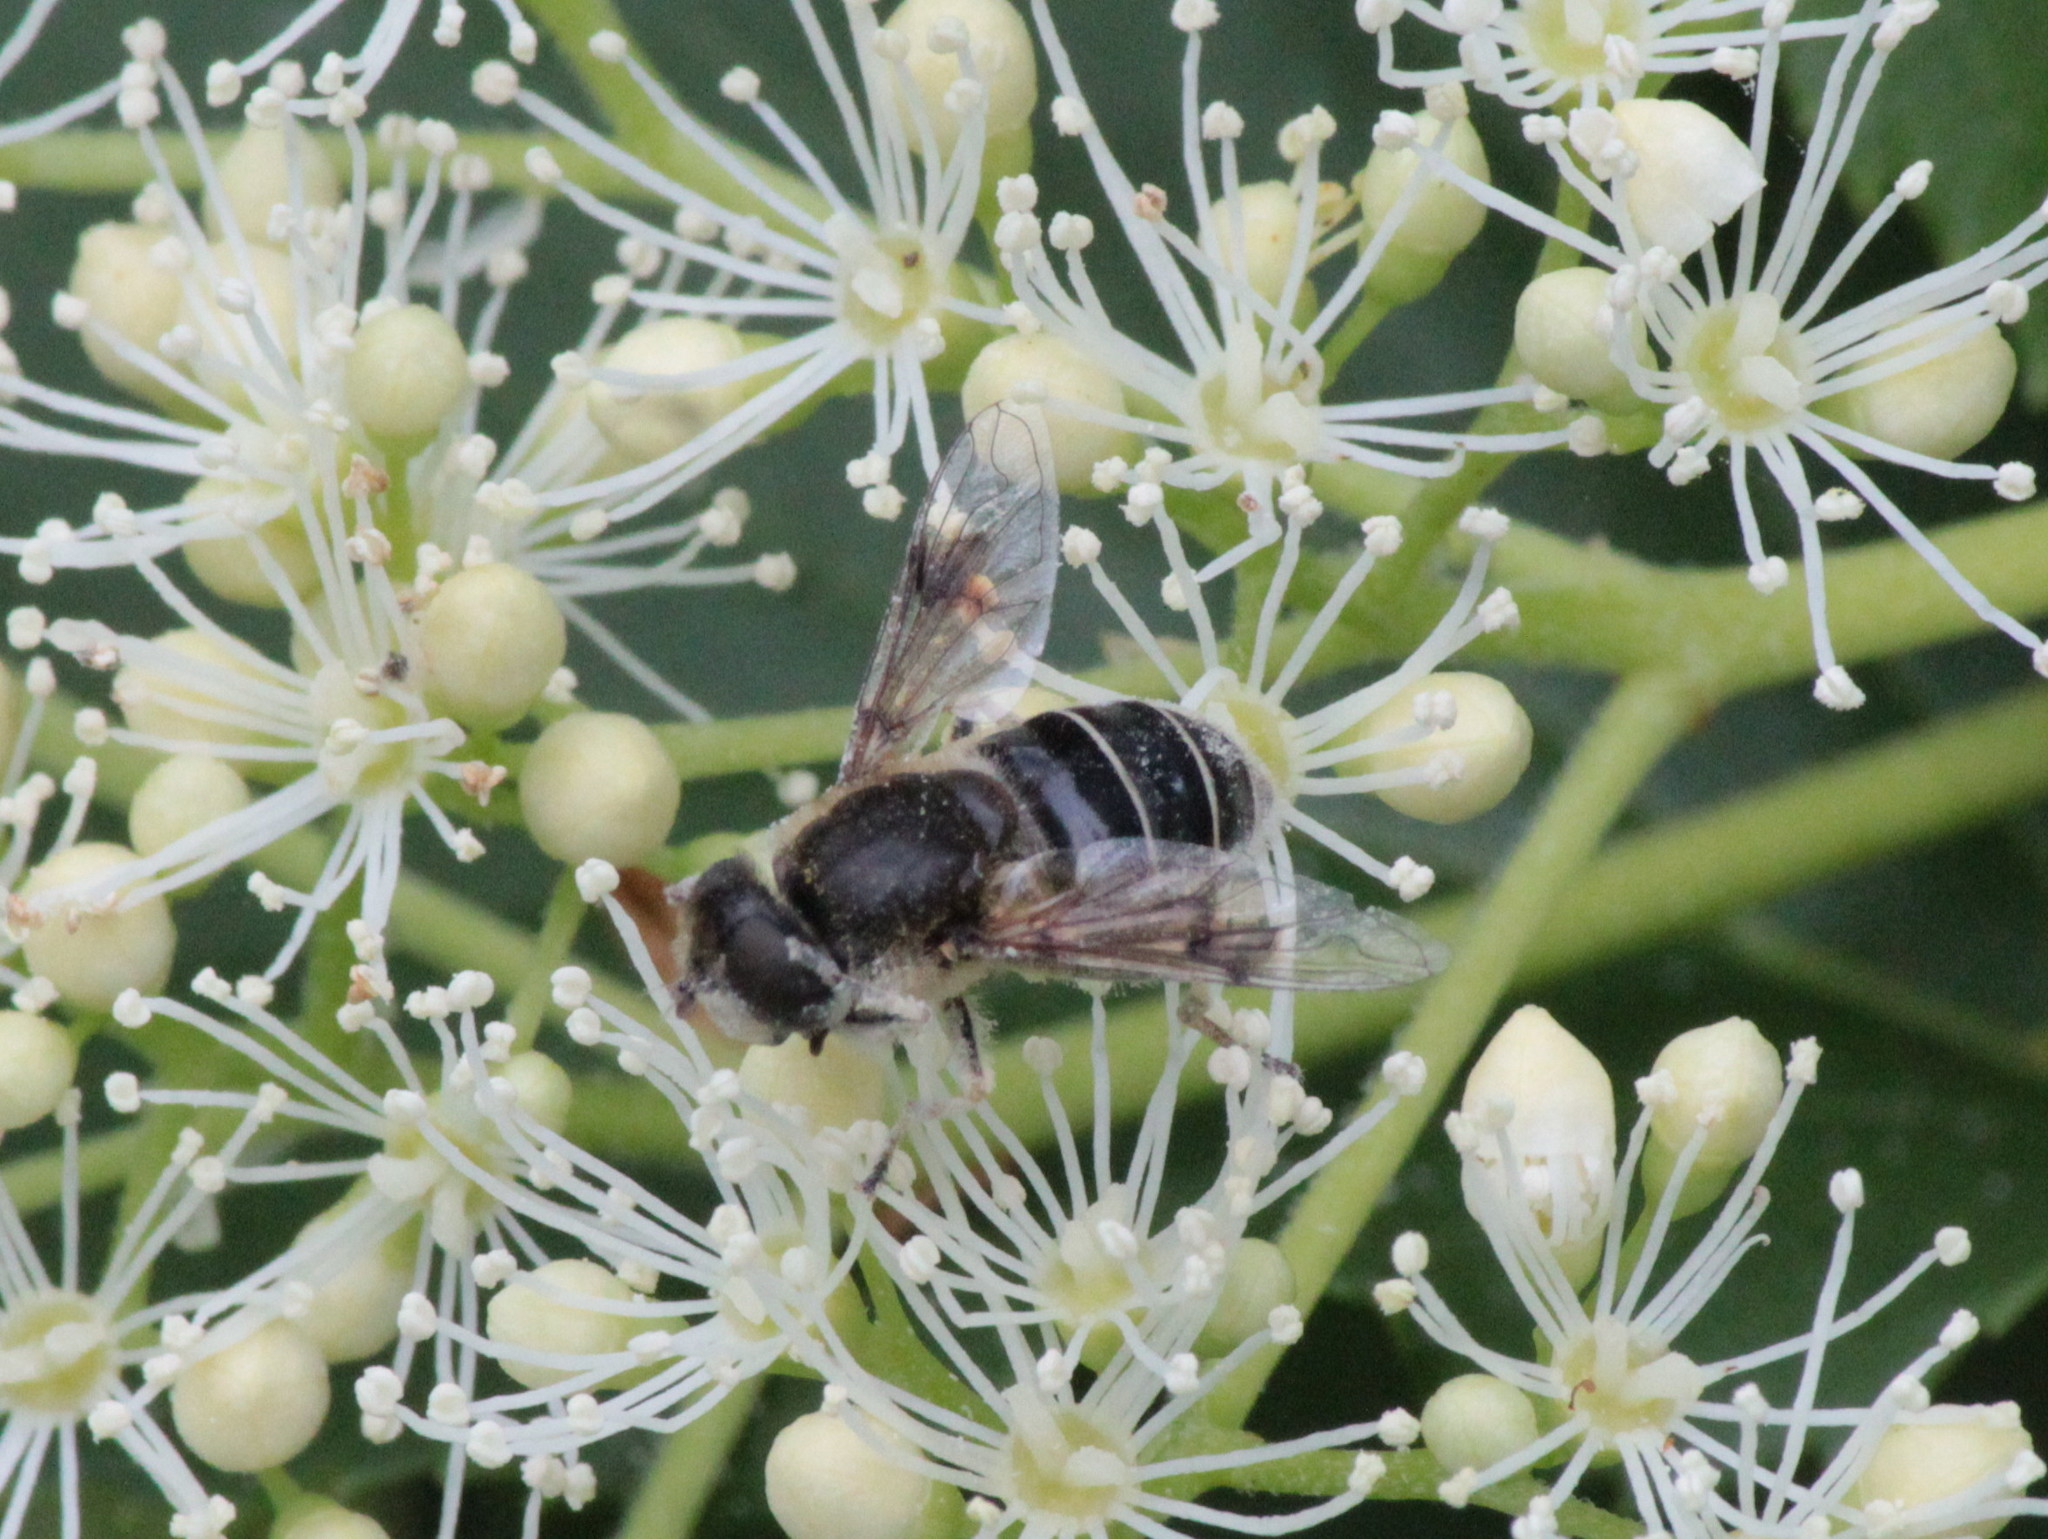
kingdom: Animalia
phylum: Arthropoda
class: Insecta
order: Diptera
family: Syrphidae
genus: Eristalis
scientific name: Eristalis arbustorum
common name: Hover fly
